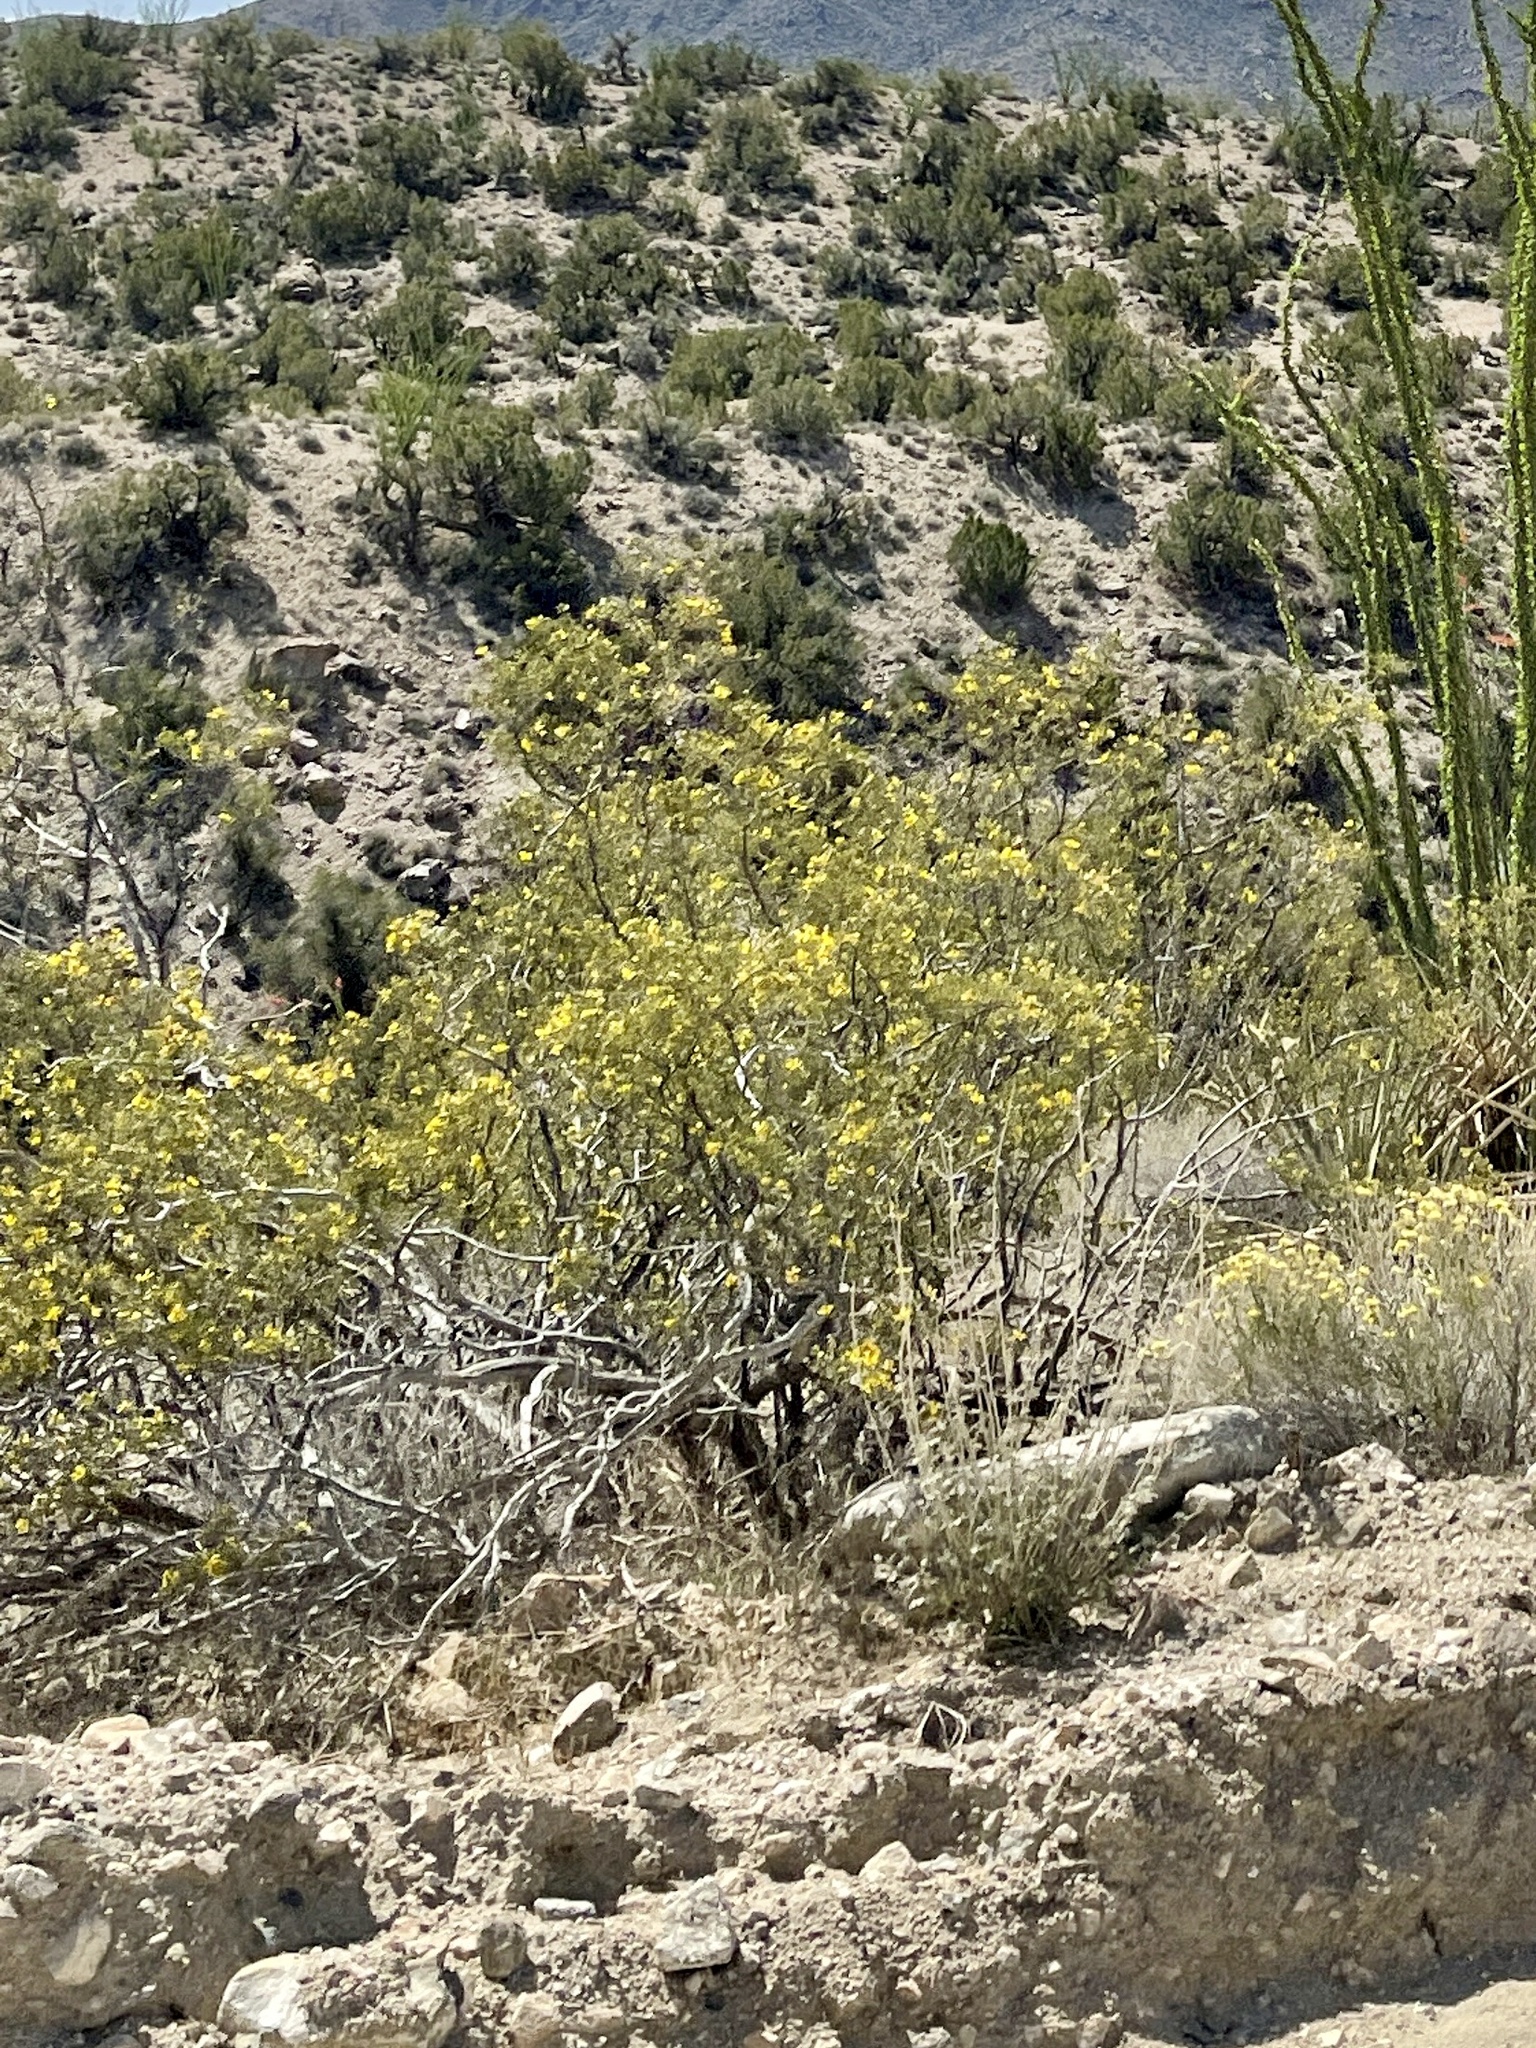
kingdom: Plantae
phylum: Tracheophyta
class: Magnoliopsida
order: Zygophyllales
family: Zygophyllaceae
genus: Larrea
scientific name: Larrea tridentata
